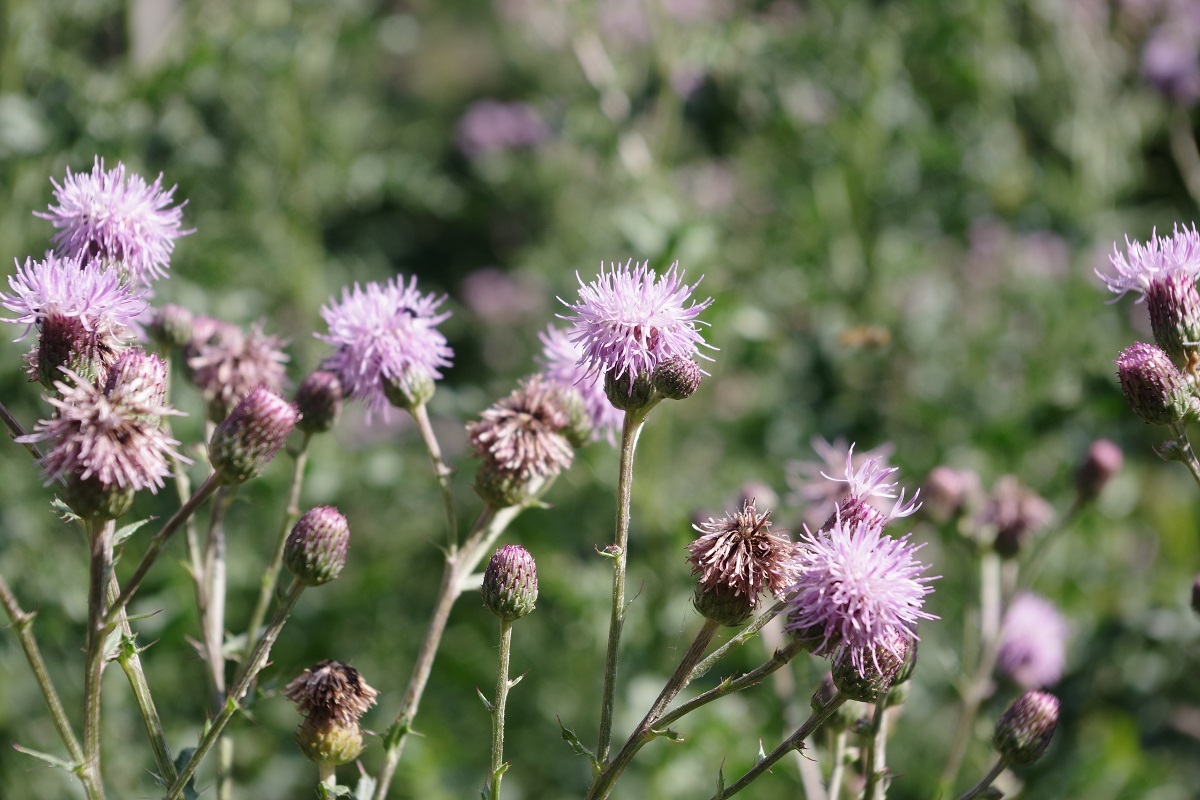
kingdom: Plantae
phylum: Tracheophyta
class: Magnoliopsida
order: Asterales
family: Asteraceae
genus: Cirsium
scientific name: Cirsium arvense
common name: Creeping thistle
